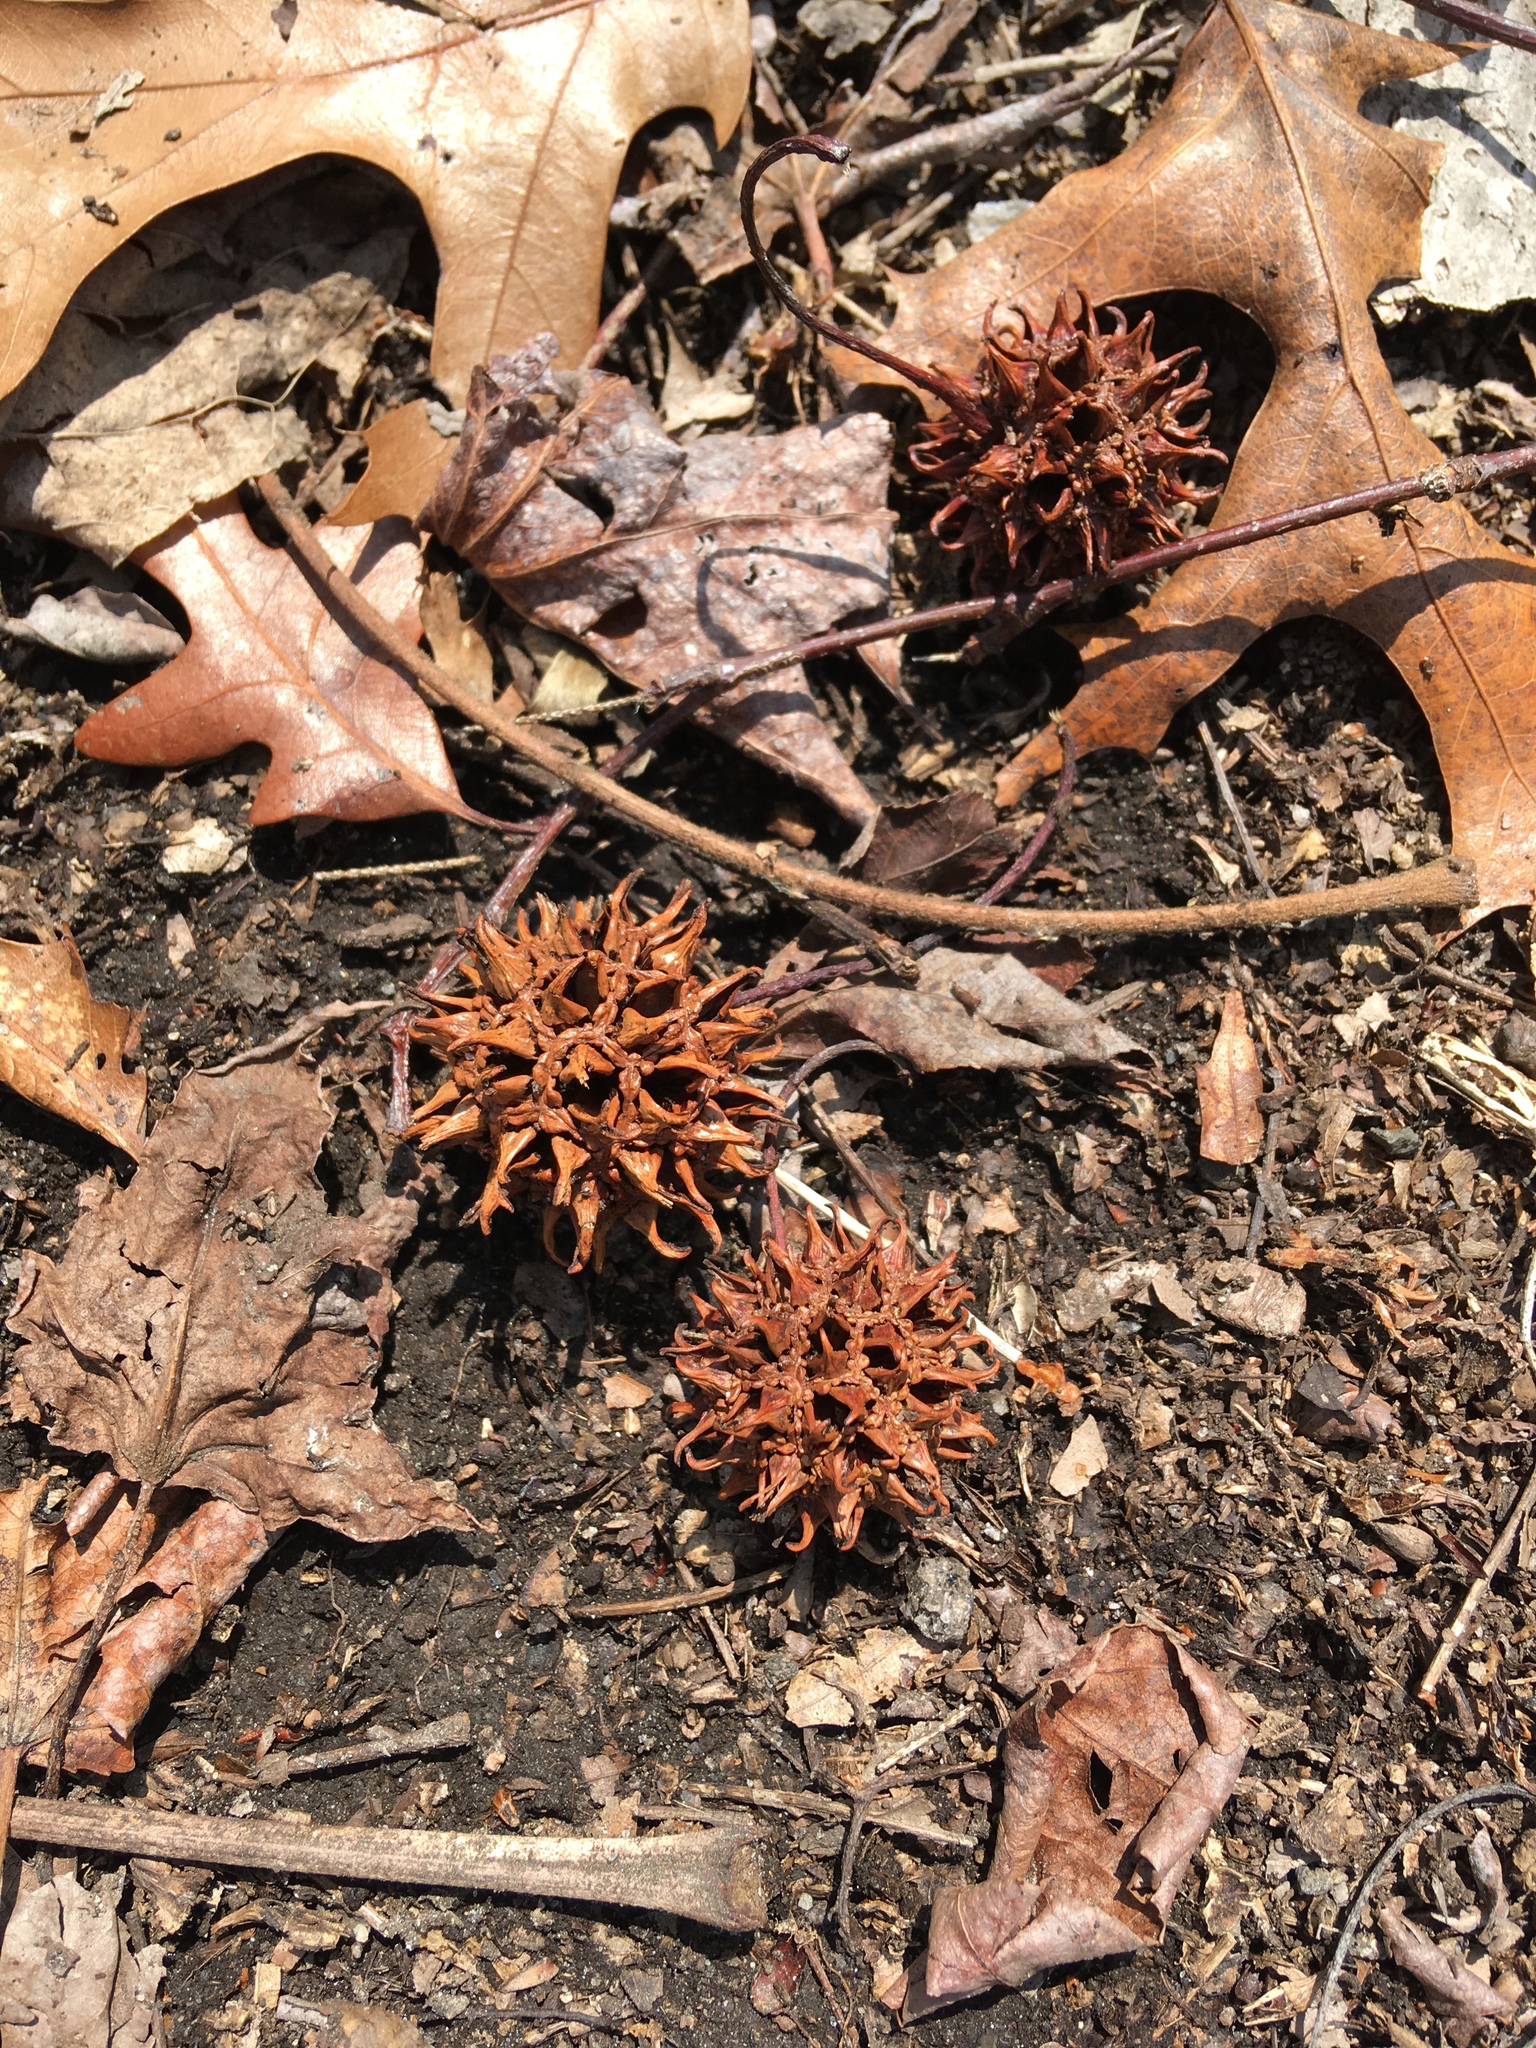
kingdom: Plantae
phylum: Tracheophyta
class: Magnoliopsida
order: Saxifragales
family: Altingiaceae
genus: Liquidambar
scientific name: Liquidambar styraciflua
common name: Sweet gum
